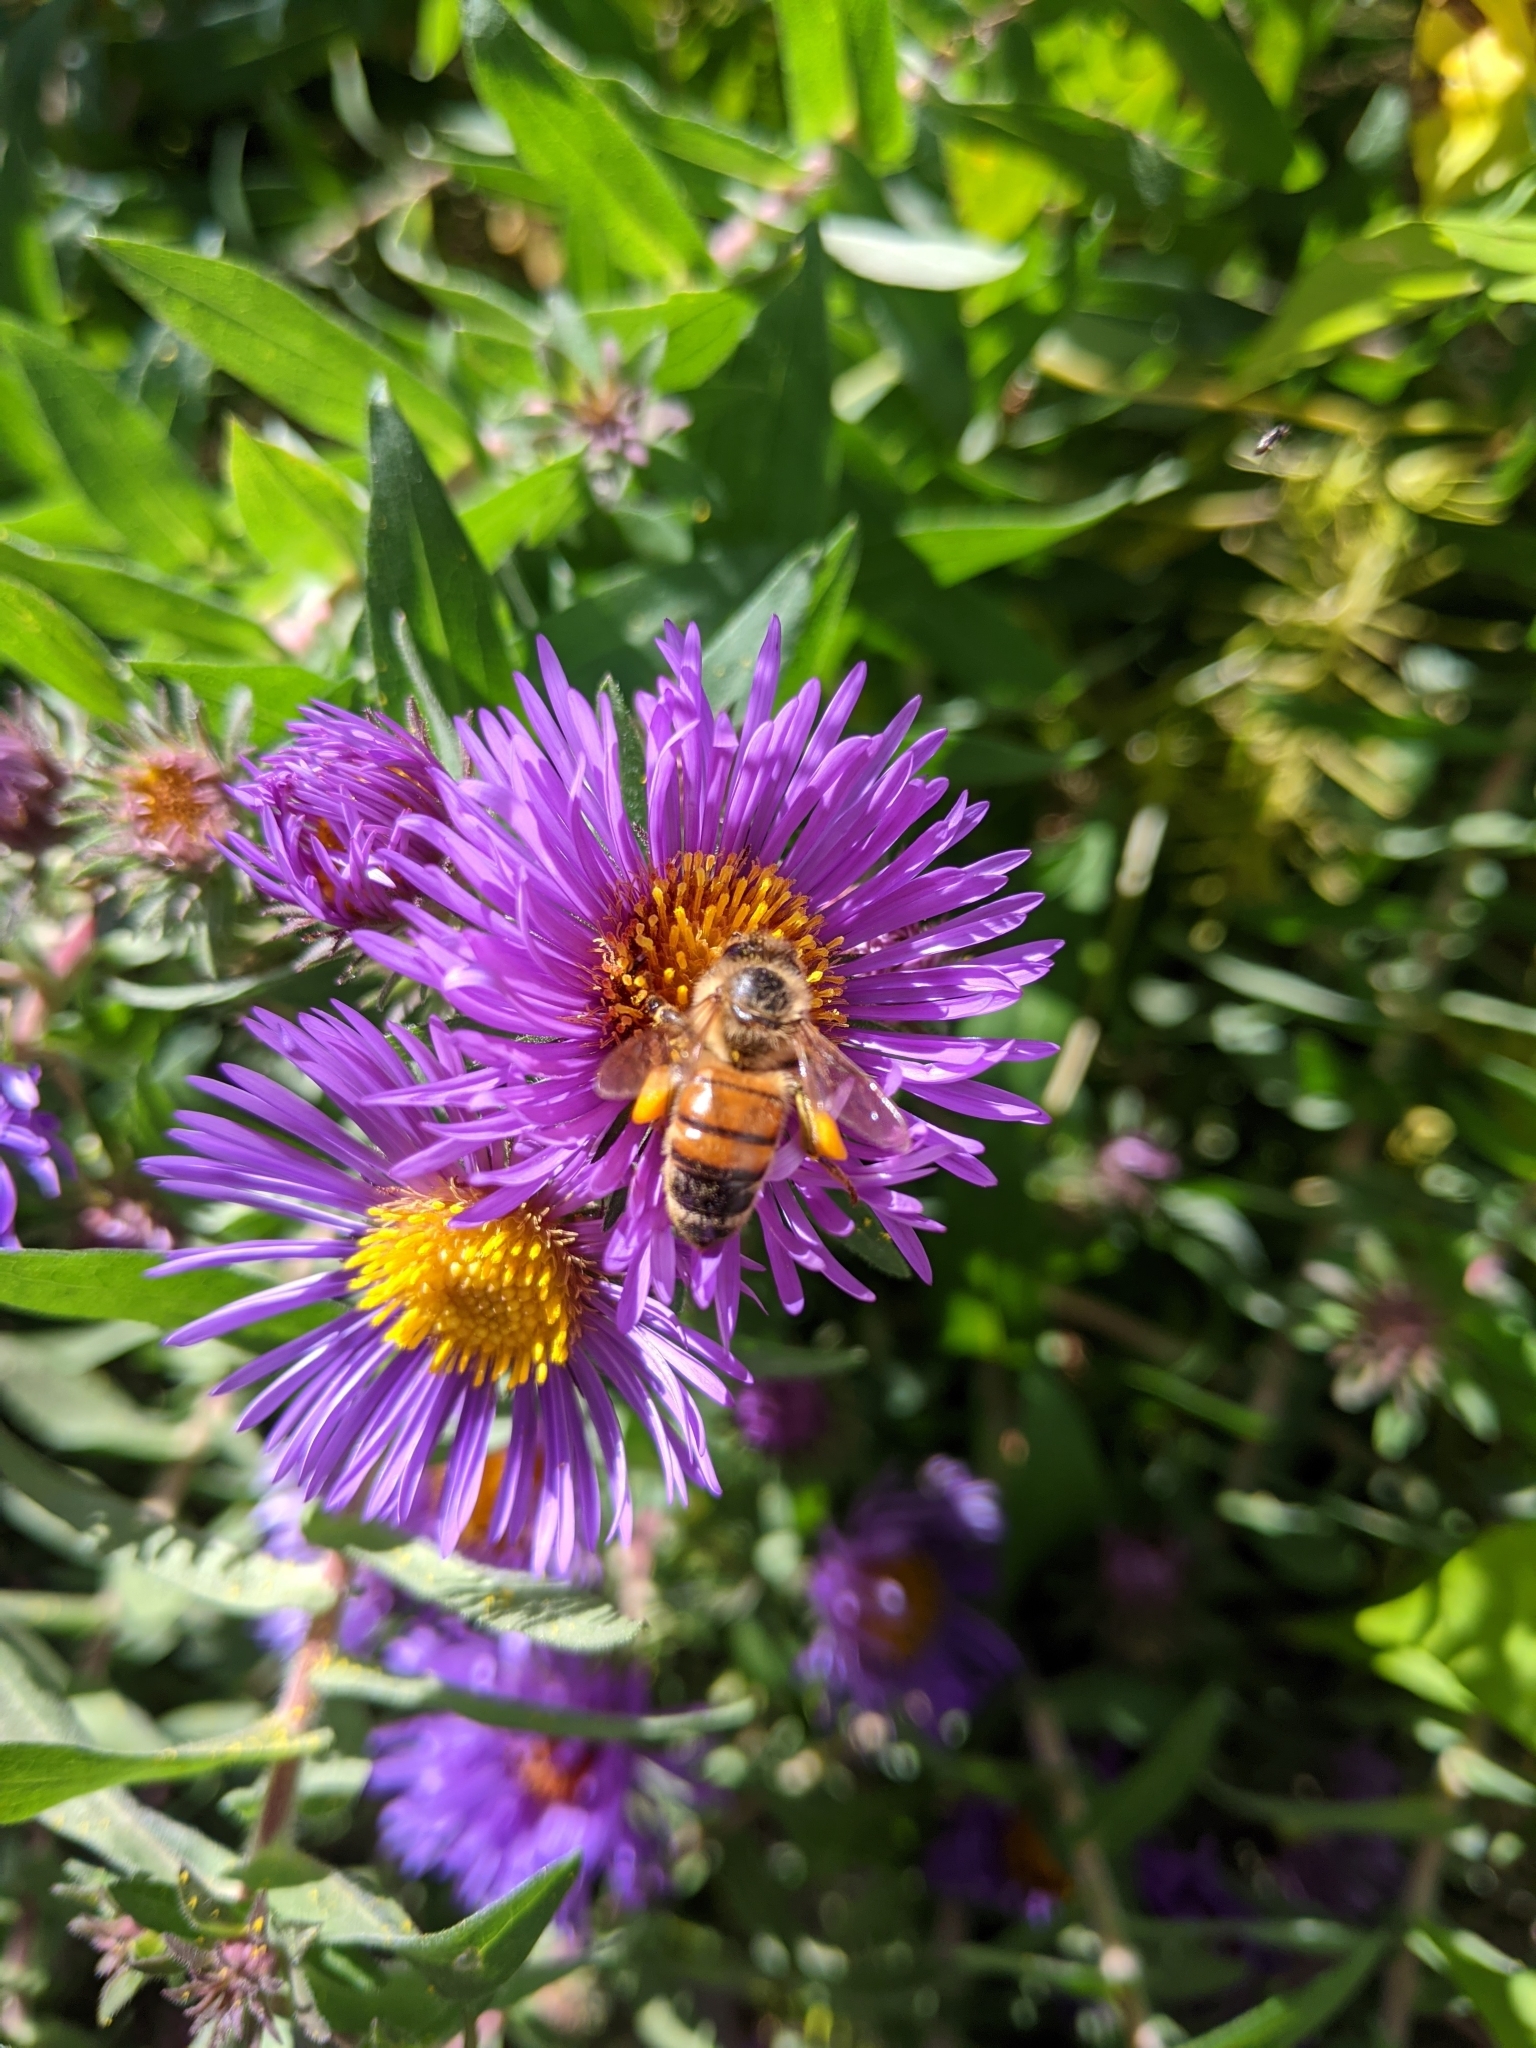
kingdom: Animalia
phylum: Arthropoda
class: Insecta
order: Hymenoptera
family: Apidae
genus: Apis
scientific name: Apis mellifera
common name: Honey bee
